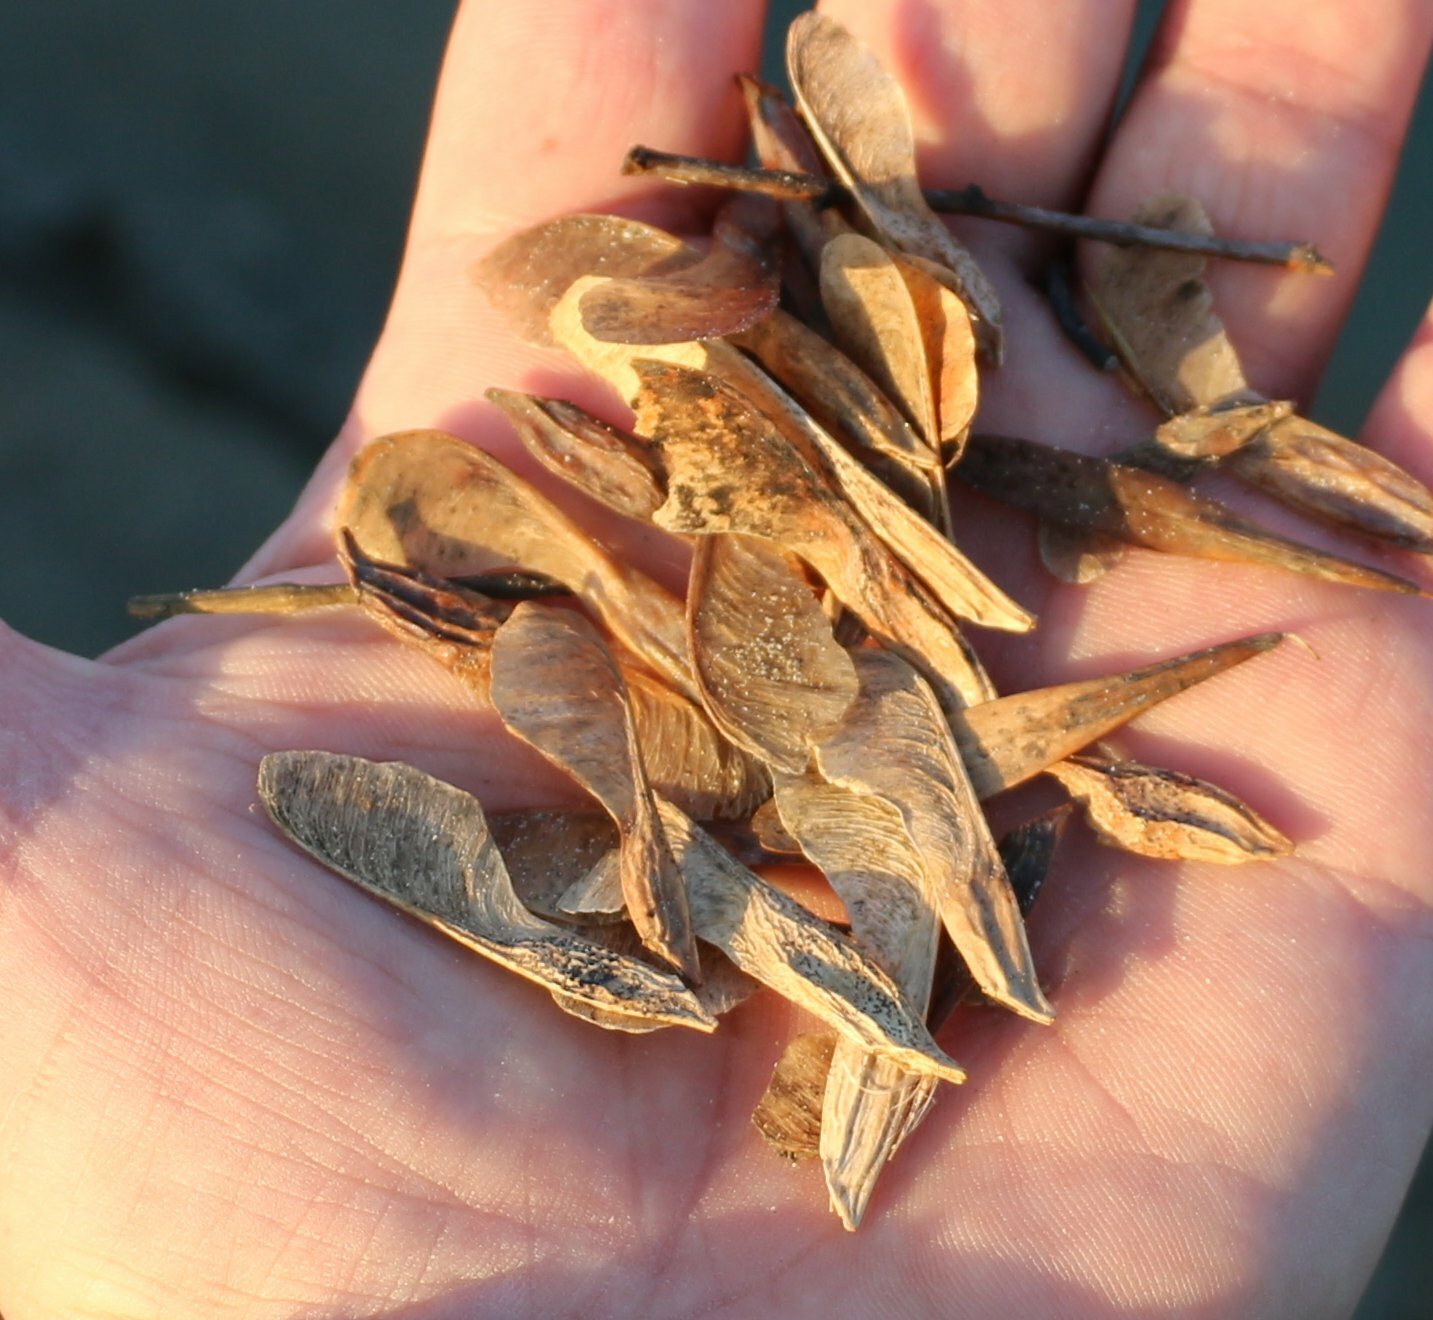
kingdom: Plantae
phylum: Tracheophyta
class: Magnoliopsida
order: Sapindales
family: Sapindaceae
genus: Acer
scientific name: Acer negundo
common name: Ashleaf maple
